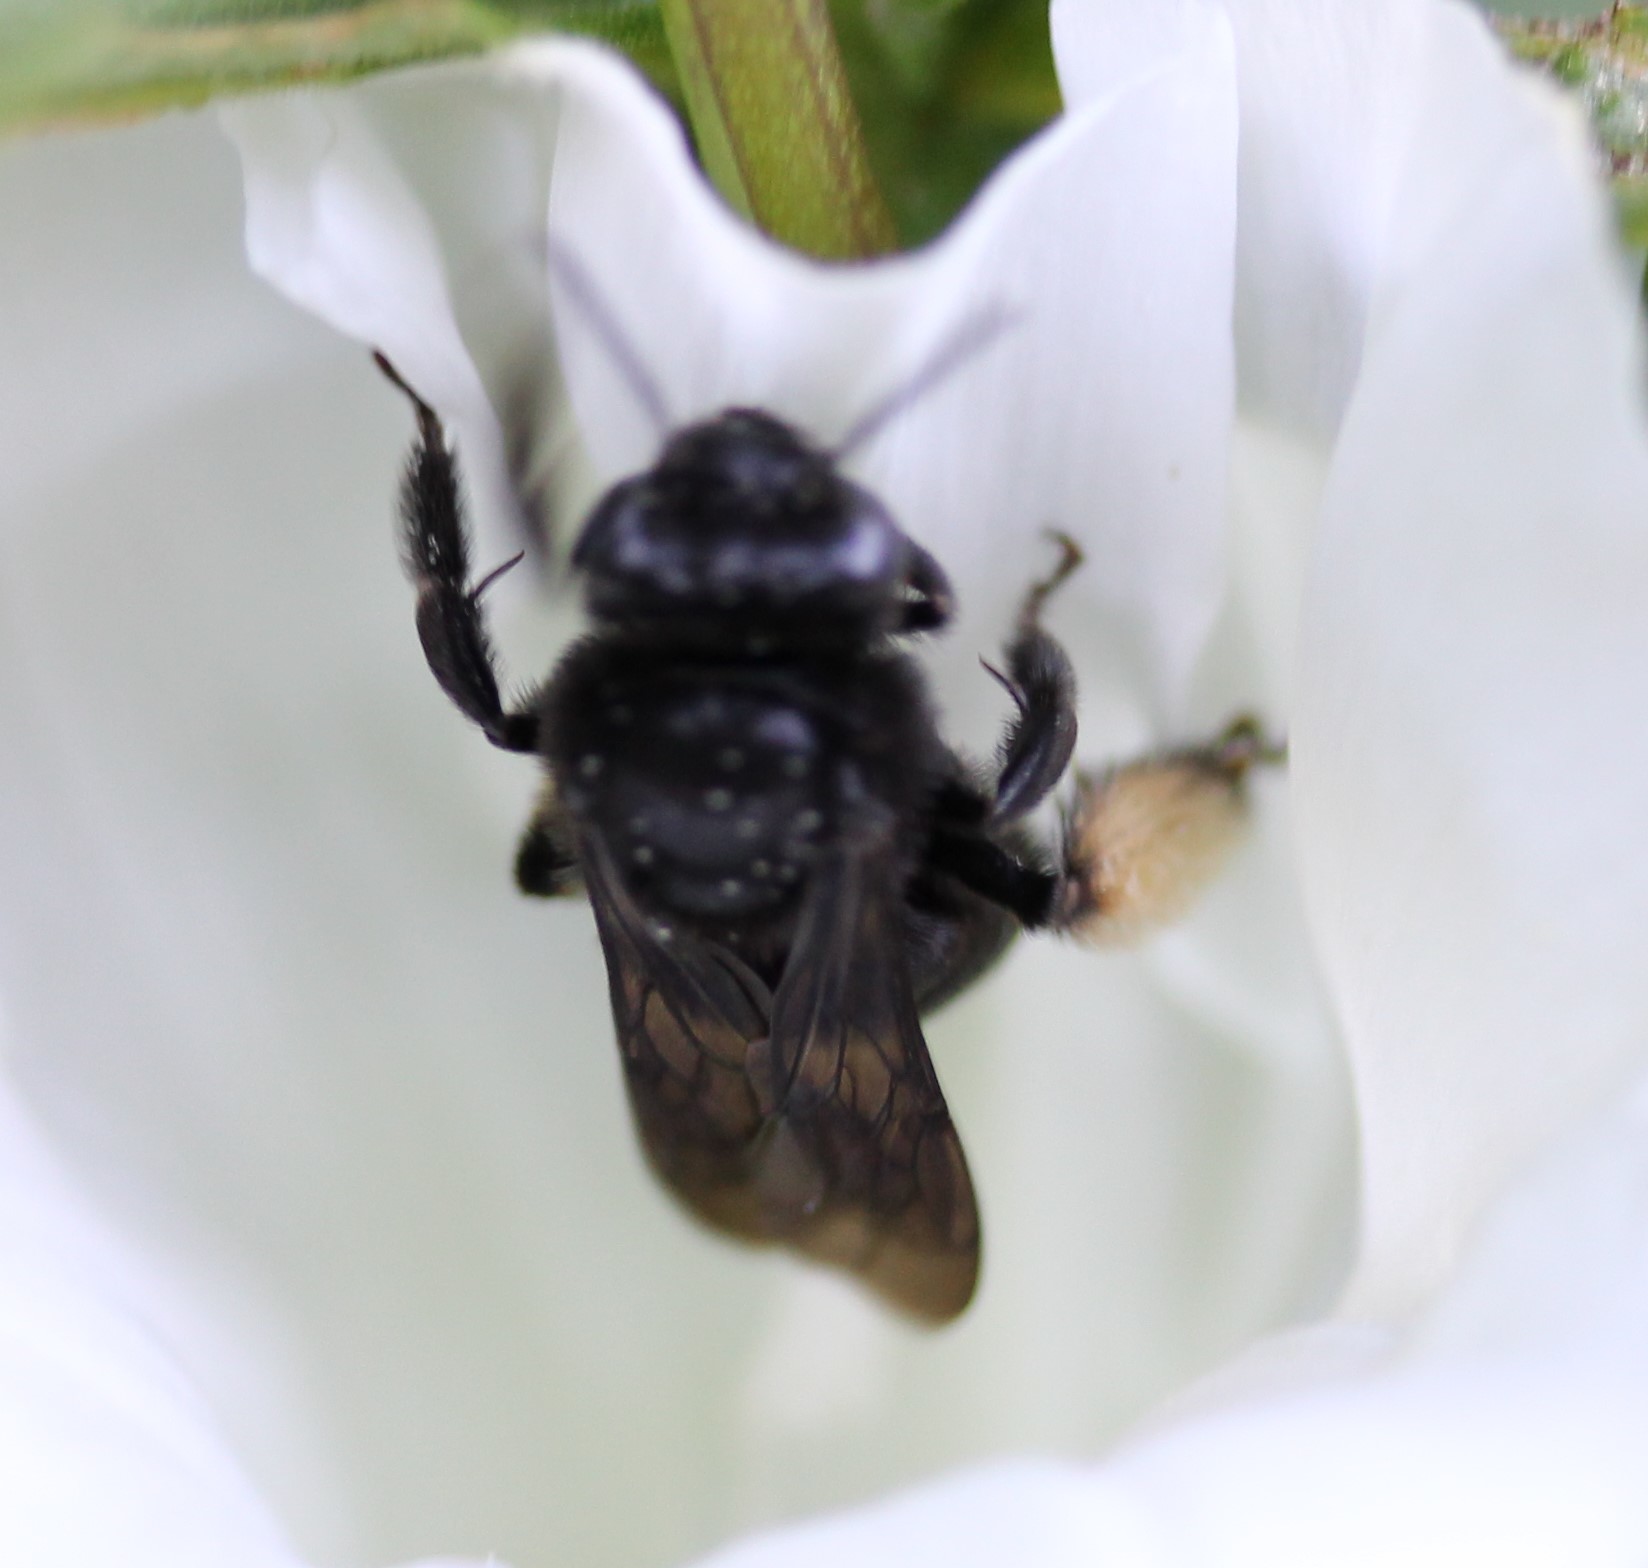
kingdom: Animalia
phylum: Arthropoda
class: Insecta
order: Hymenoptera
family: Apidae
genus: Melissodes
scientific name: Melissodes bimaculatus
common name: Two-spotted long-horned bee
